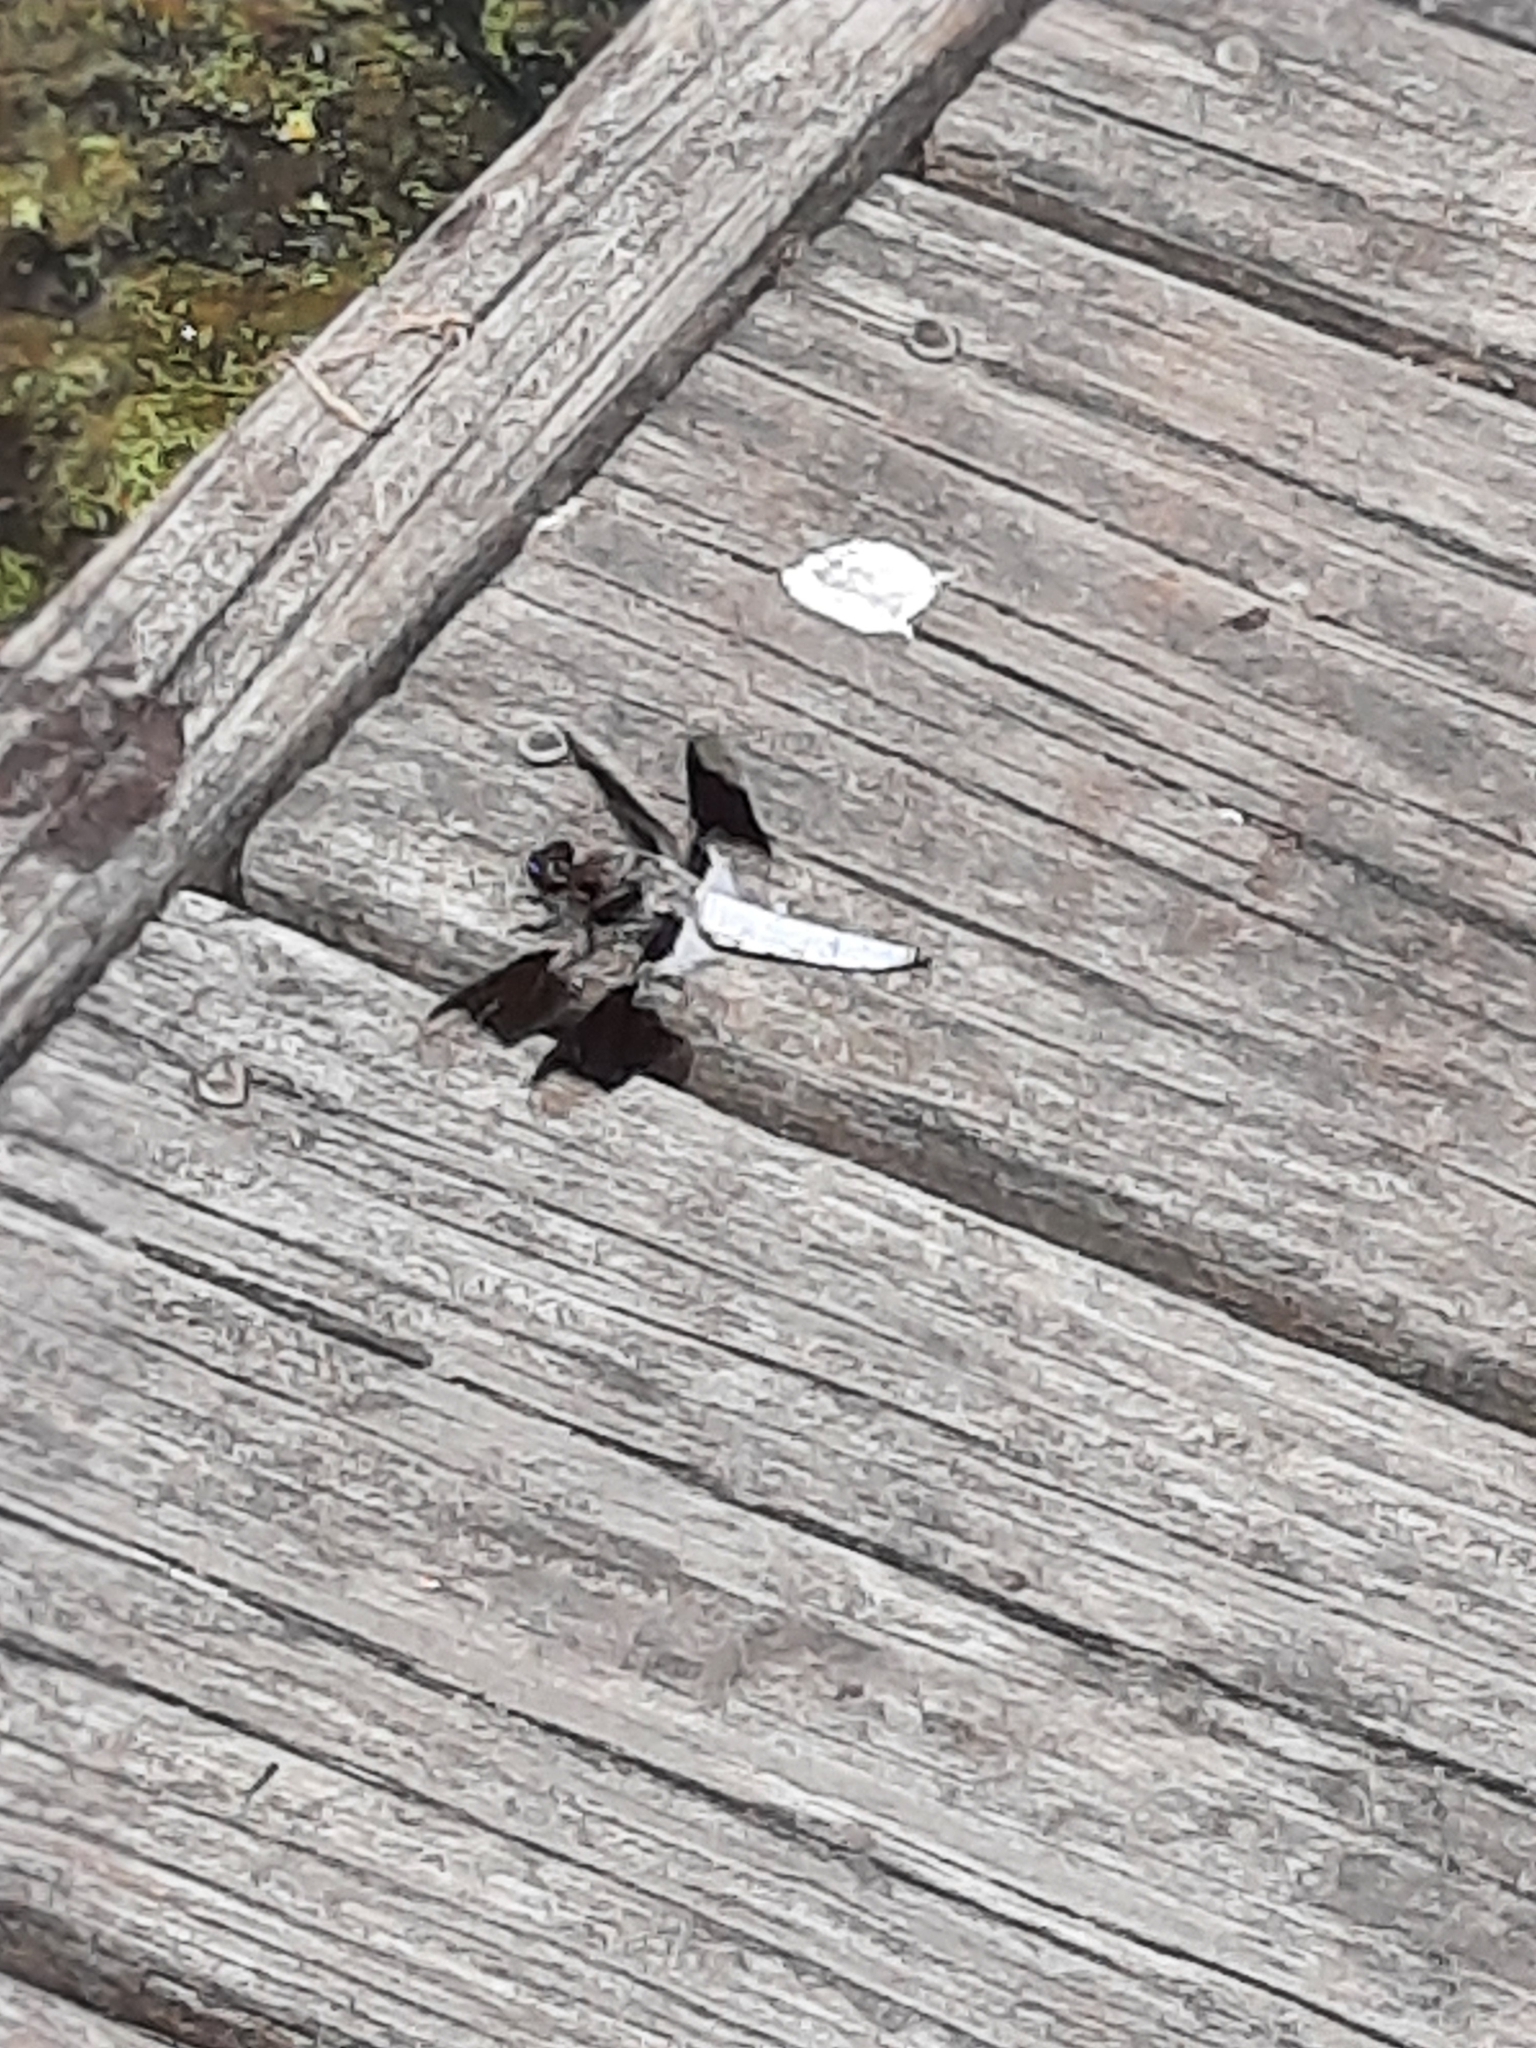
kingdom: Animalia
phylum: Arthropoda
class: Insecta
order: Odonata
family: Libellulidae
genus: Plathemis
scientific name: Plathemis lydia
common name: Common whitetail
